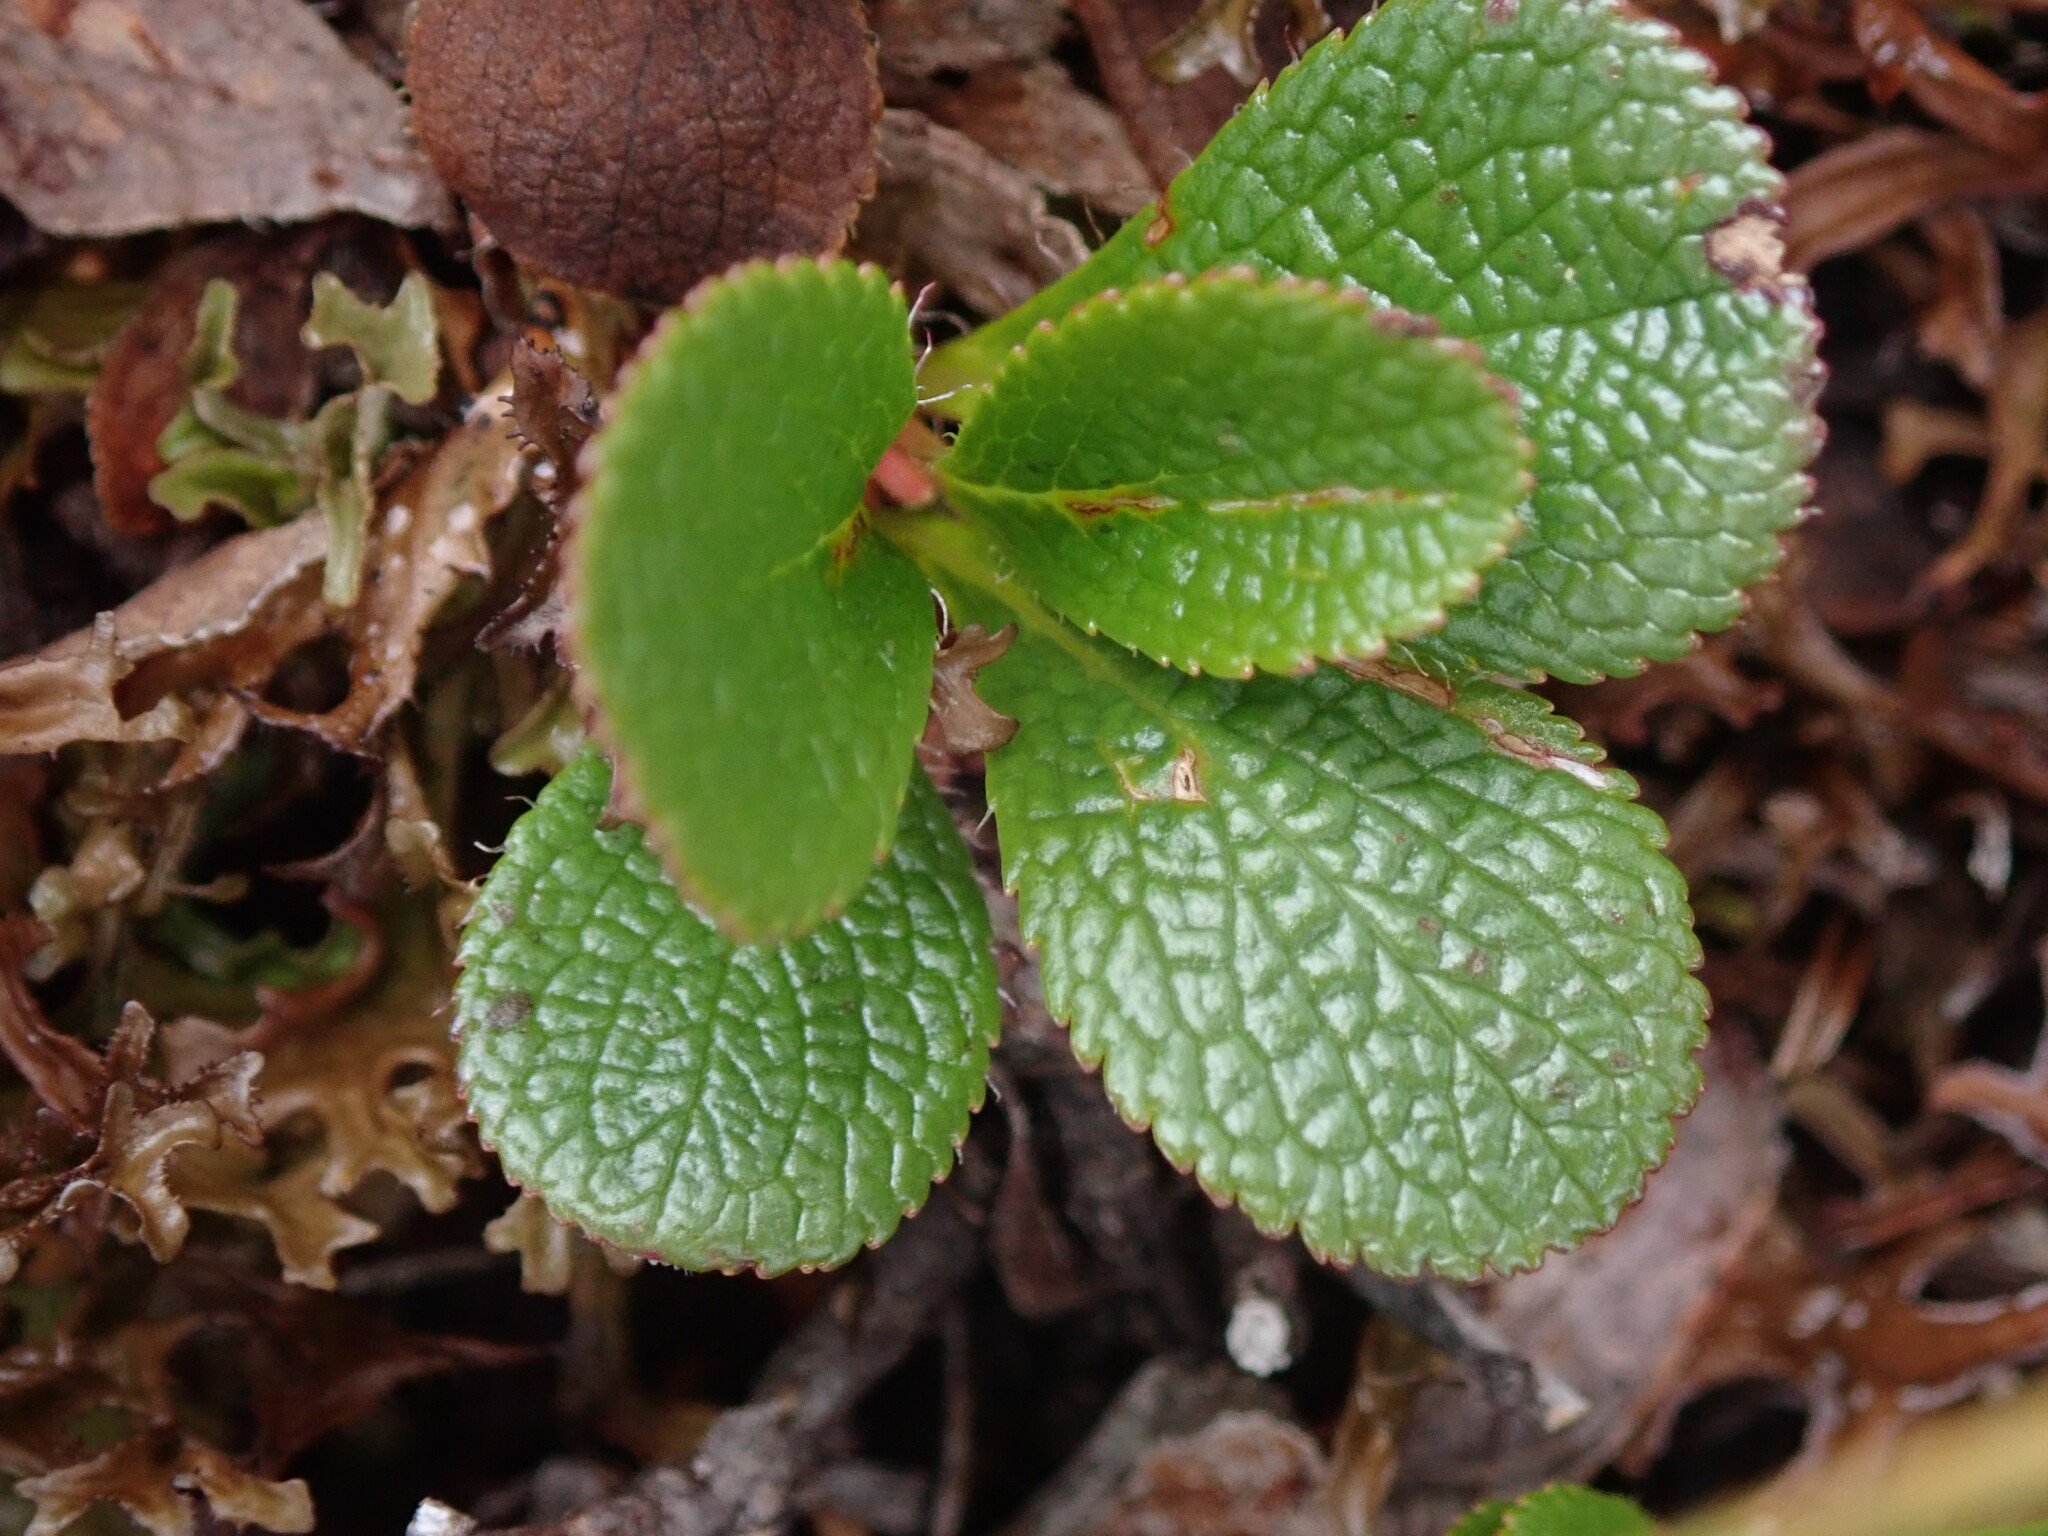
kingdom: Plantae
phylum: Tracheophyta
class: Magnoliopsida
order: Ericales
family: Ericaceae
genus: Arctostaphylos
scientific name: Arctostaphylos alpinus
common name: Alpine bearberry
